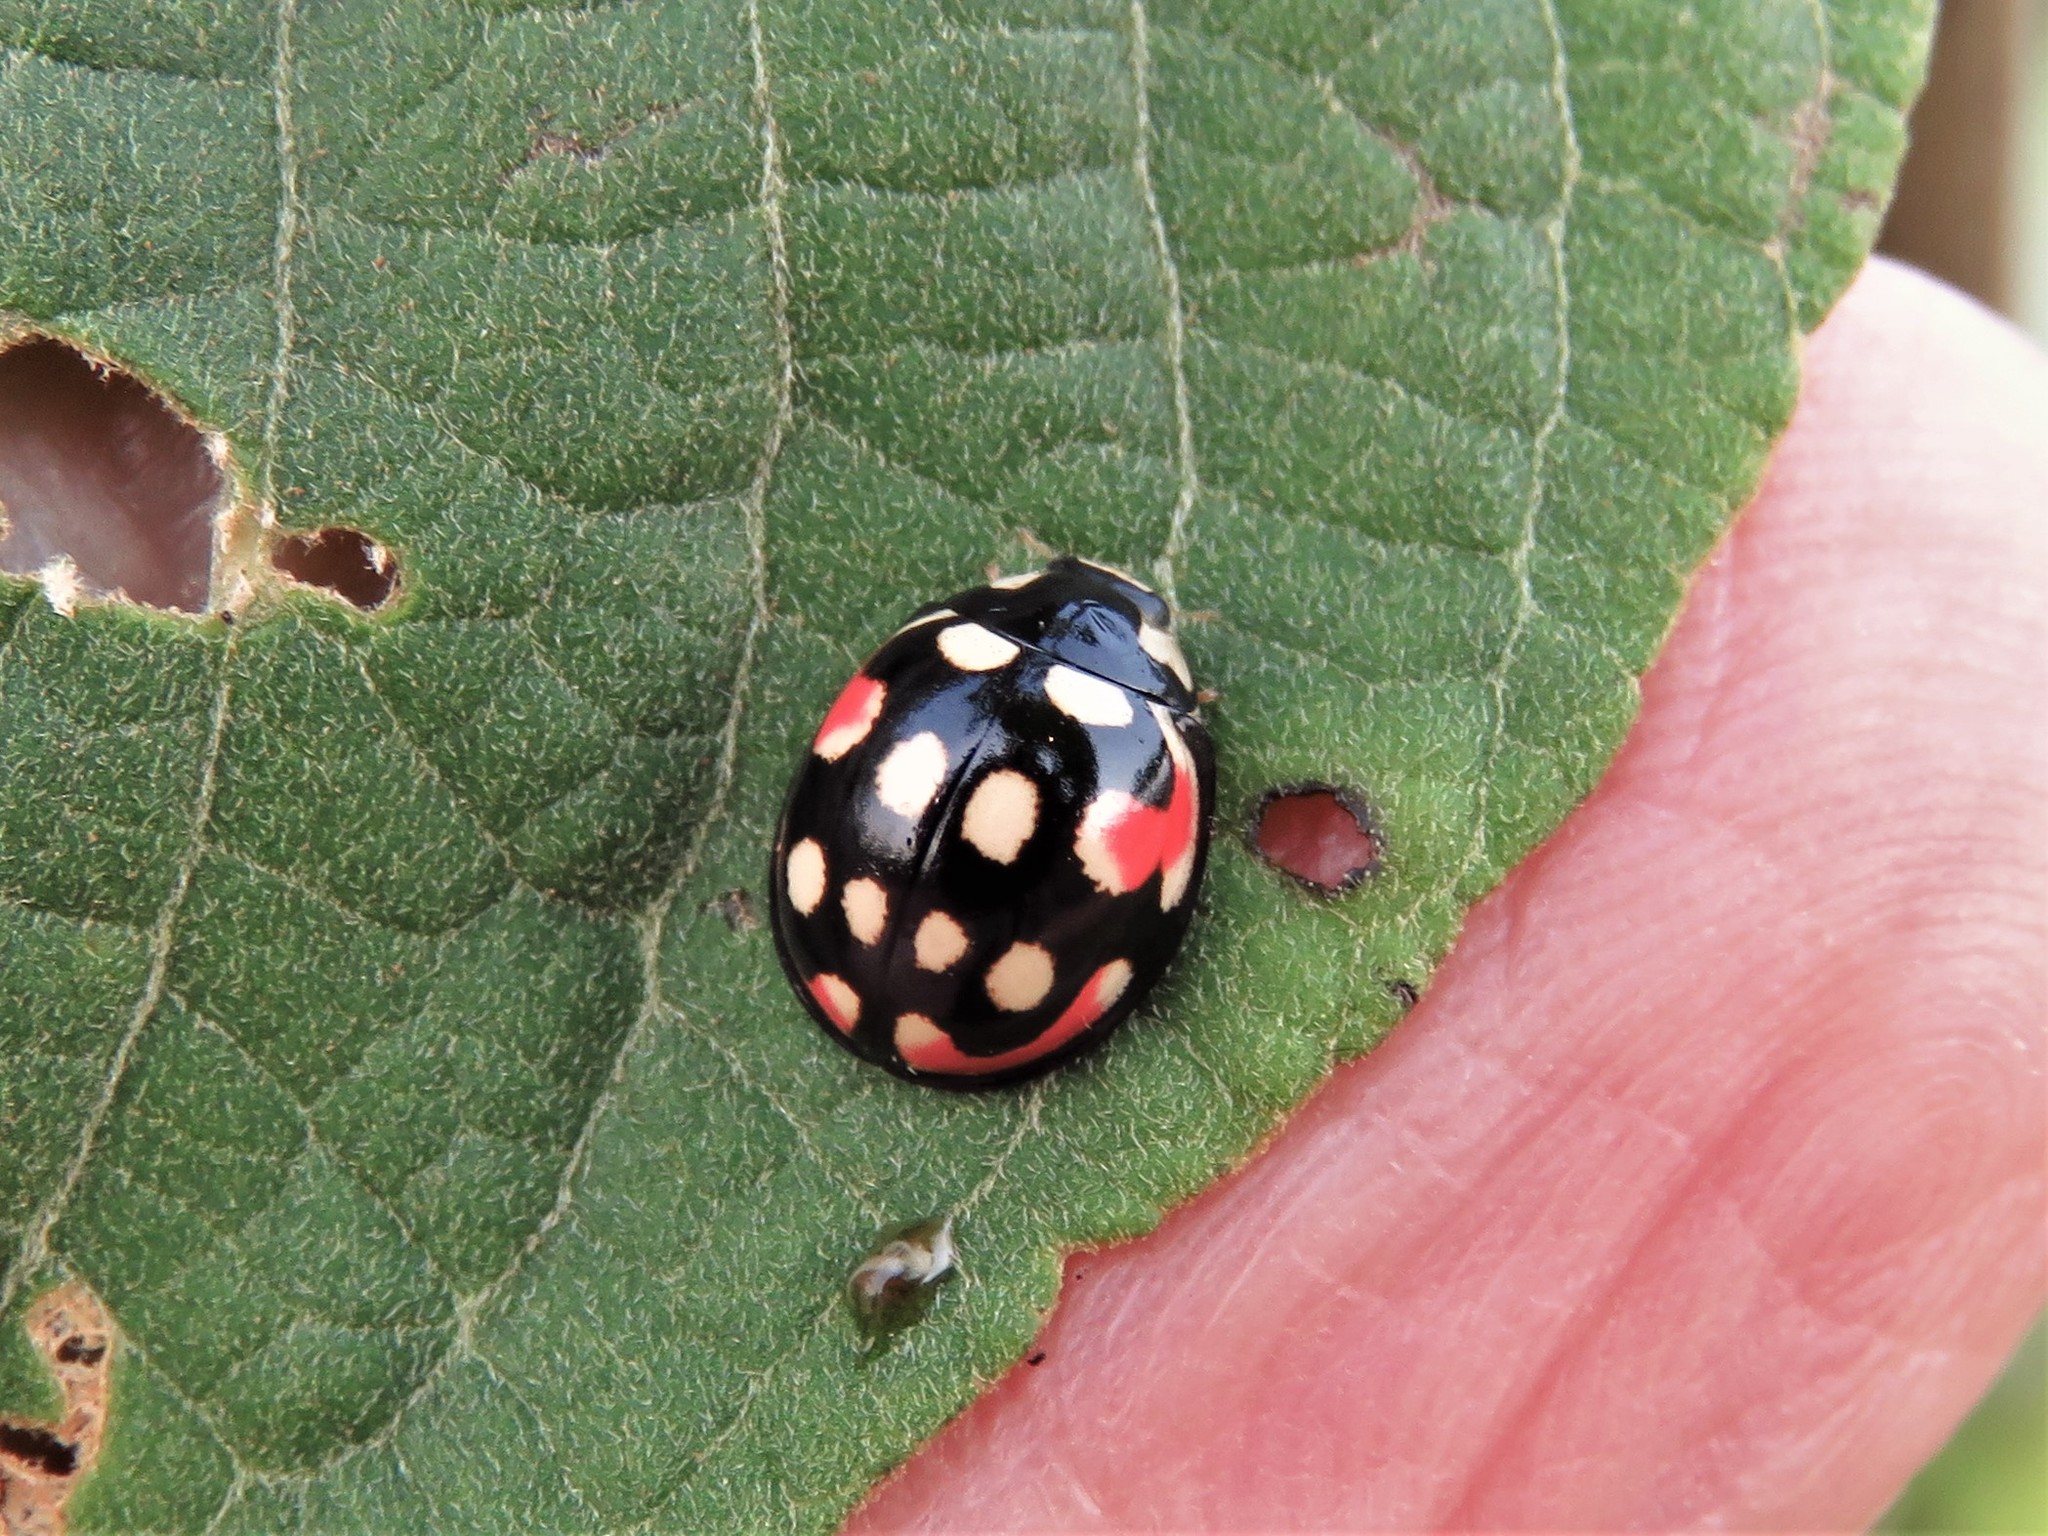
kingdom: Animalia
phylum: Arthropoda
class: Insecta
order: Coleoptera
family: Coccinellidae
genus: Cheilomenes
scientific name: Cheilomenes sulphurea
